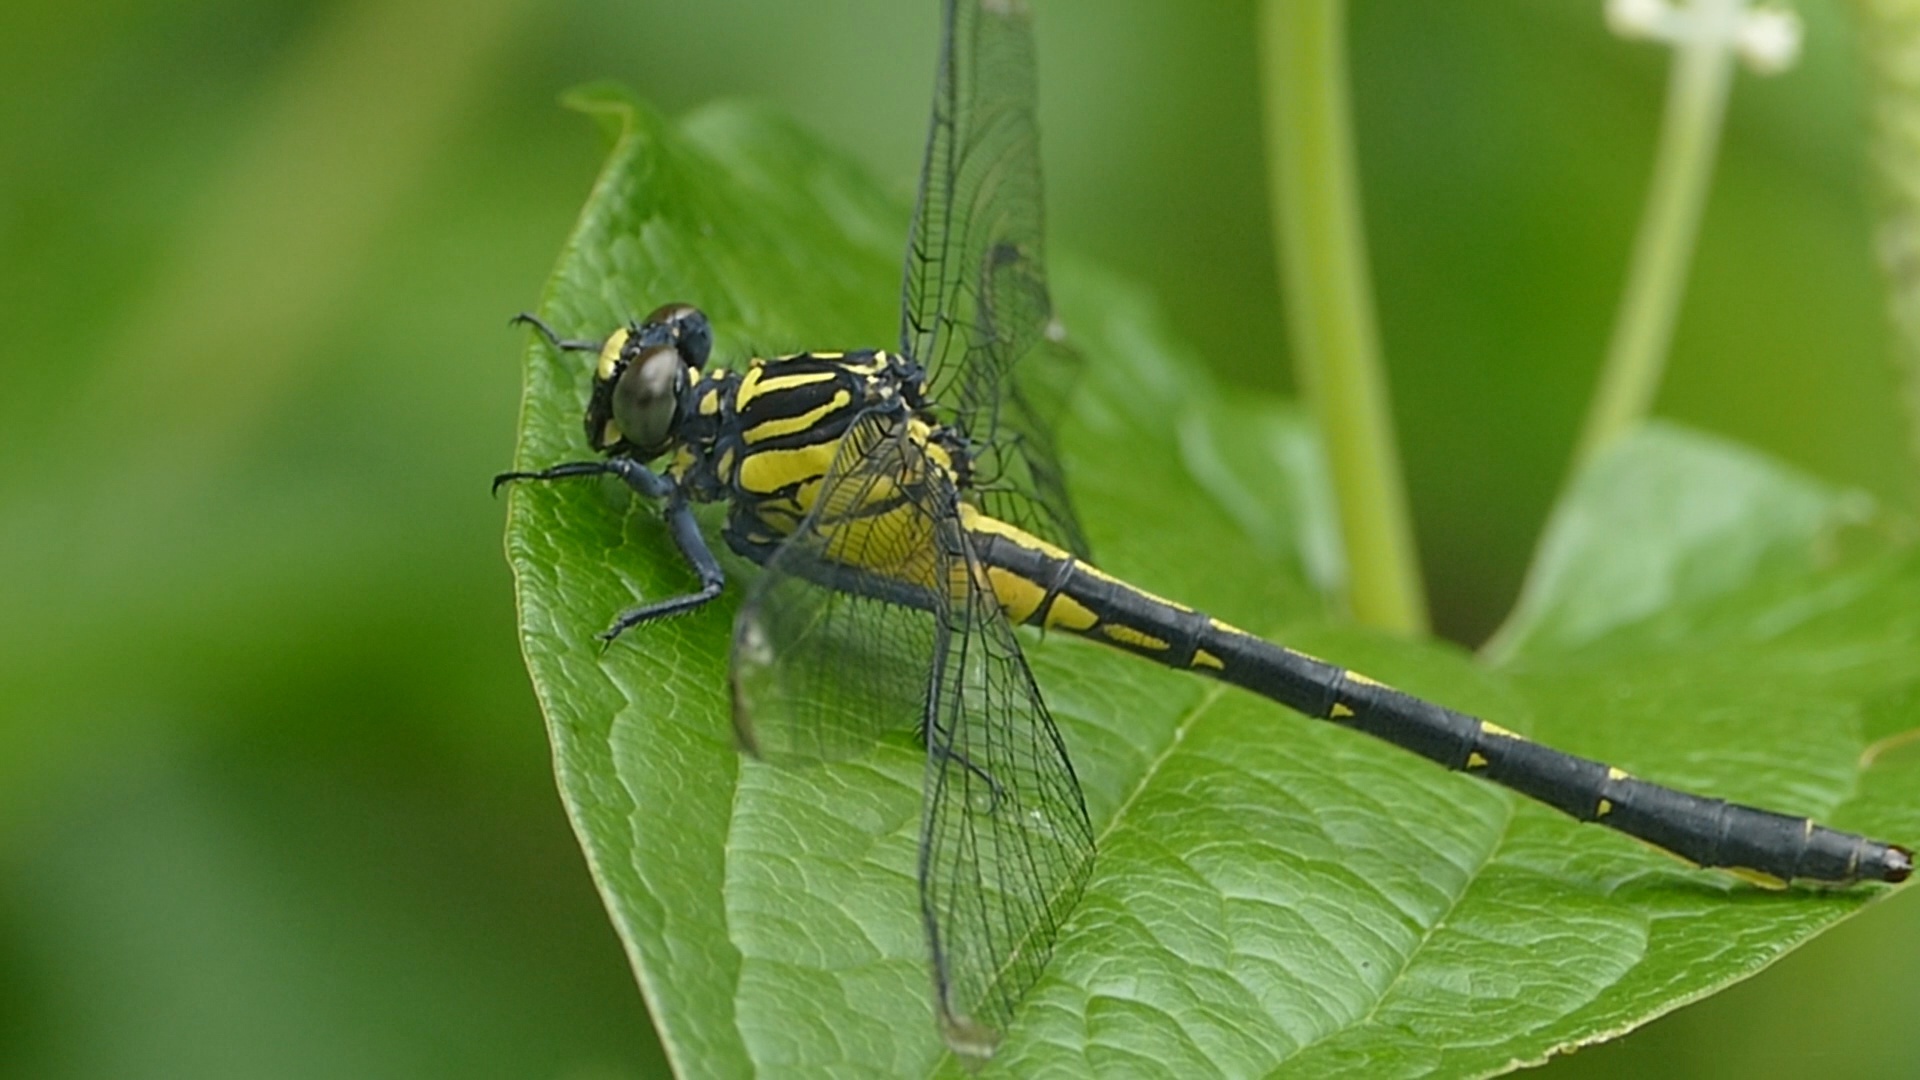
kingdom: Animalia
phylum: Arthropoda
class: Insecta
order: Odonata
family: Gomphidae
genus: Asiagomphus
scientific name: Asiagomphus pryeri
